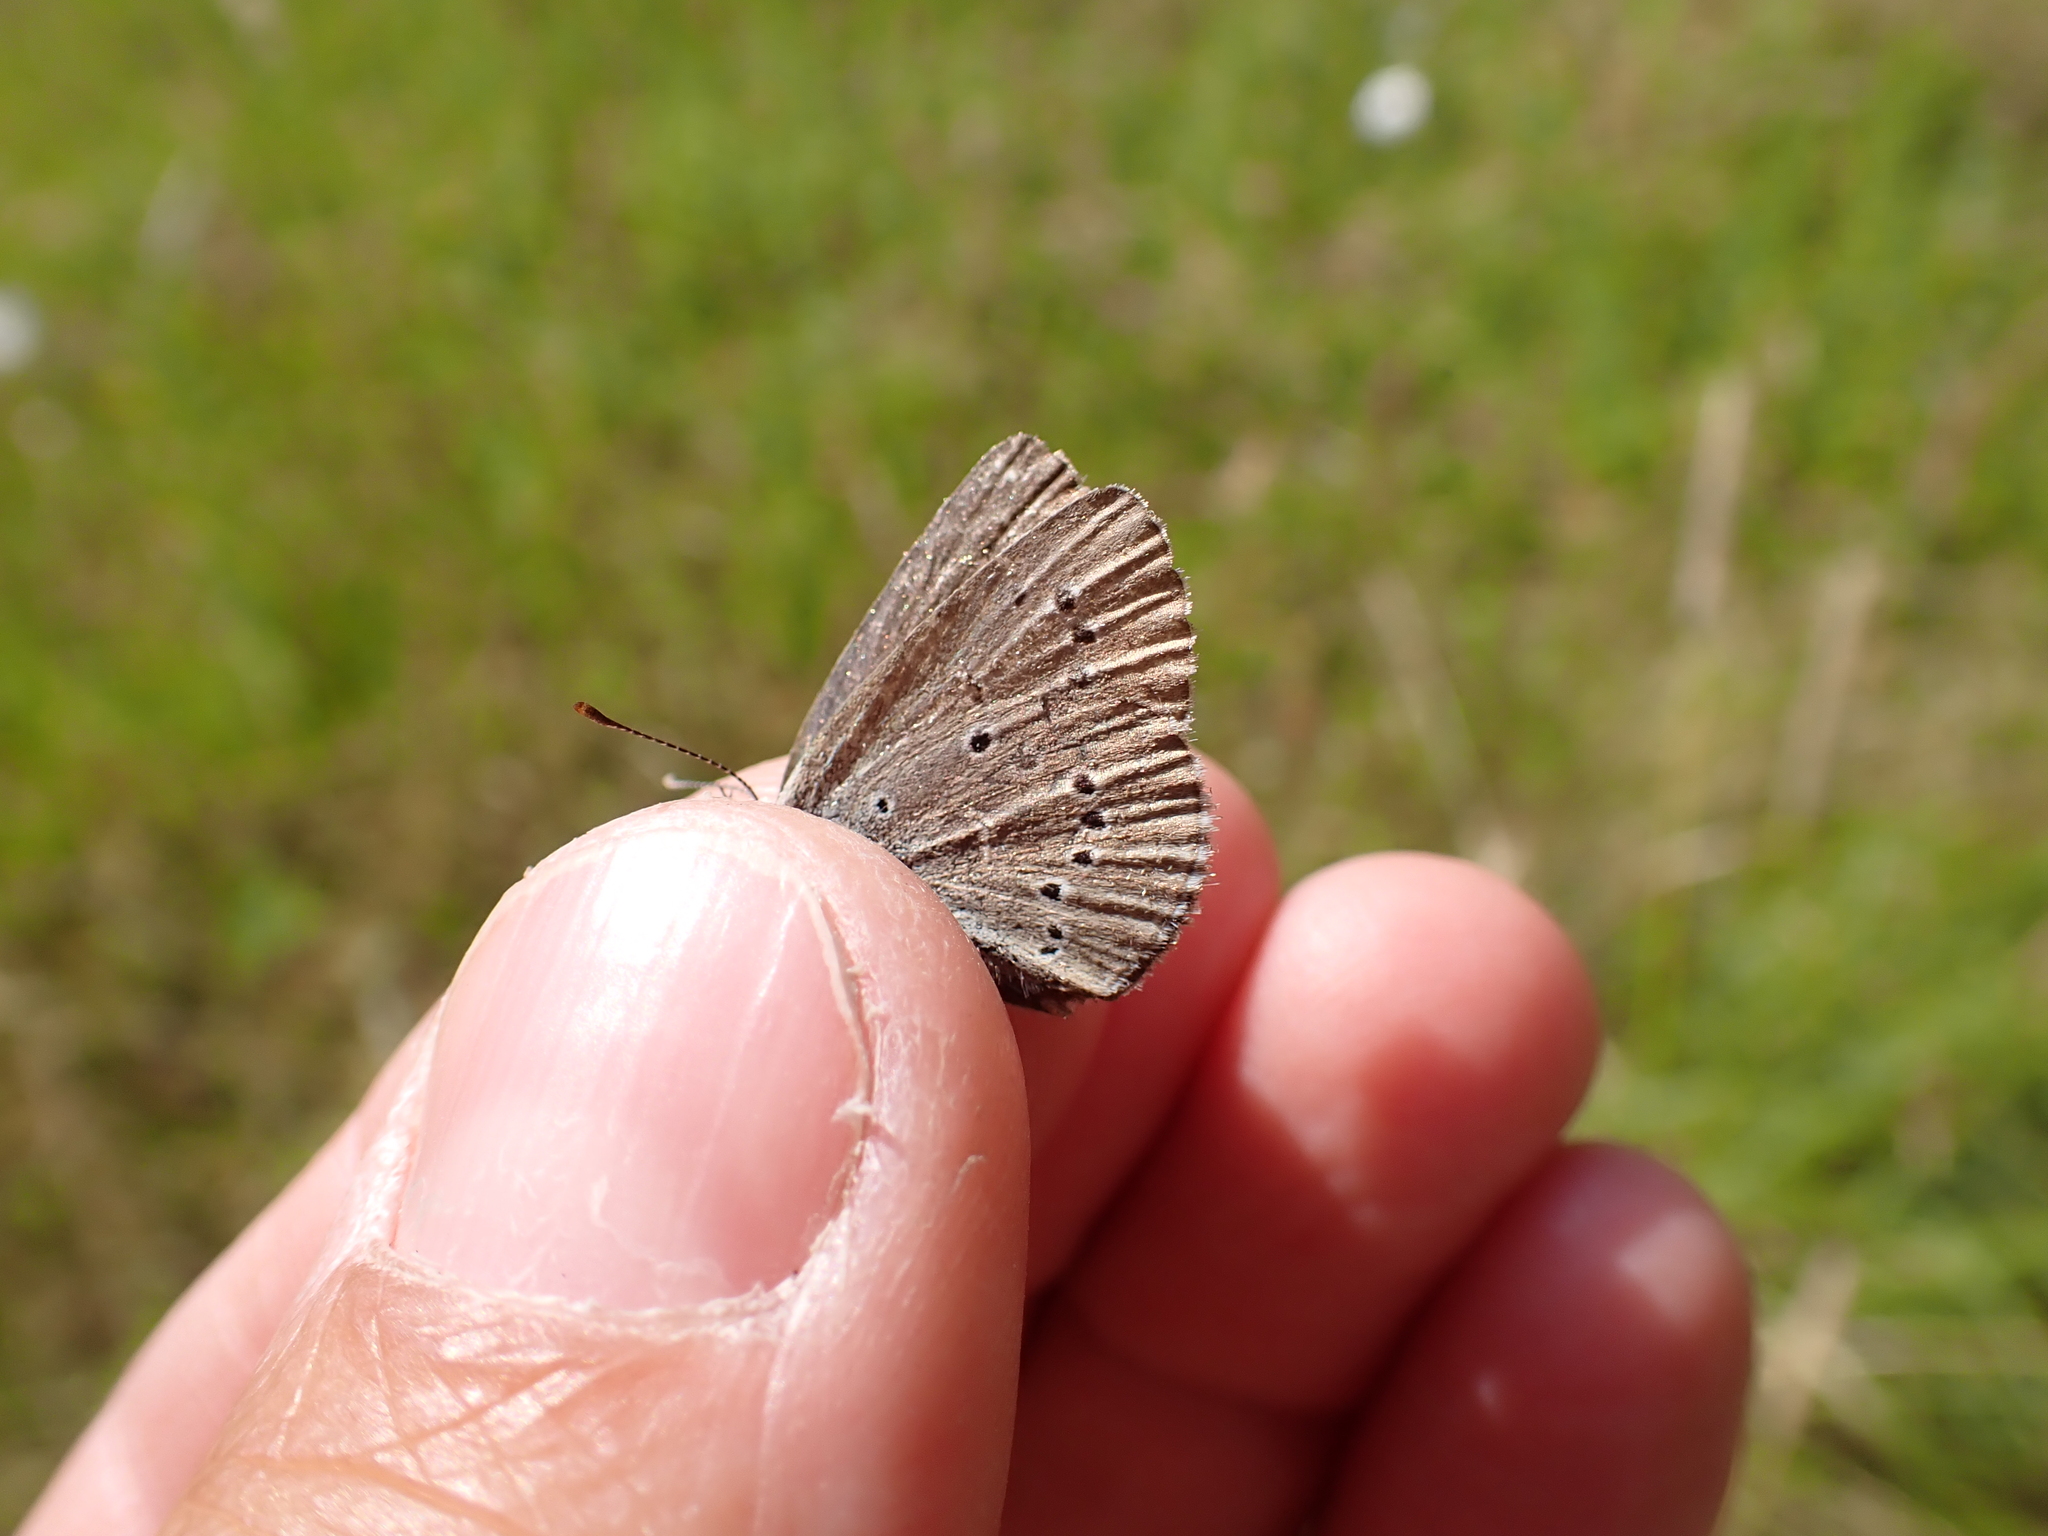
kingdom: Animalia
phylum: Arthropoda
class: Insecta
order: Lepidoptera
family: Lycaenidae
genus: Cyaniris
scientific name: Cyaniris semiargus
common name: Mazarine blue
